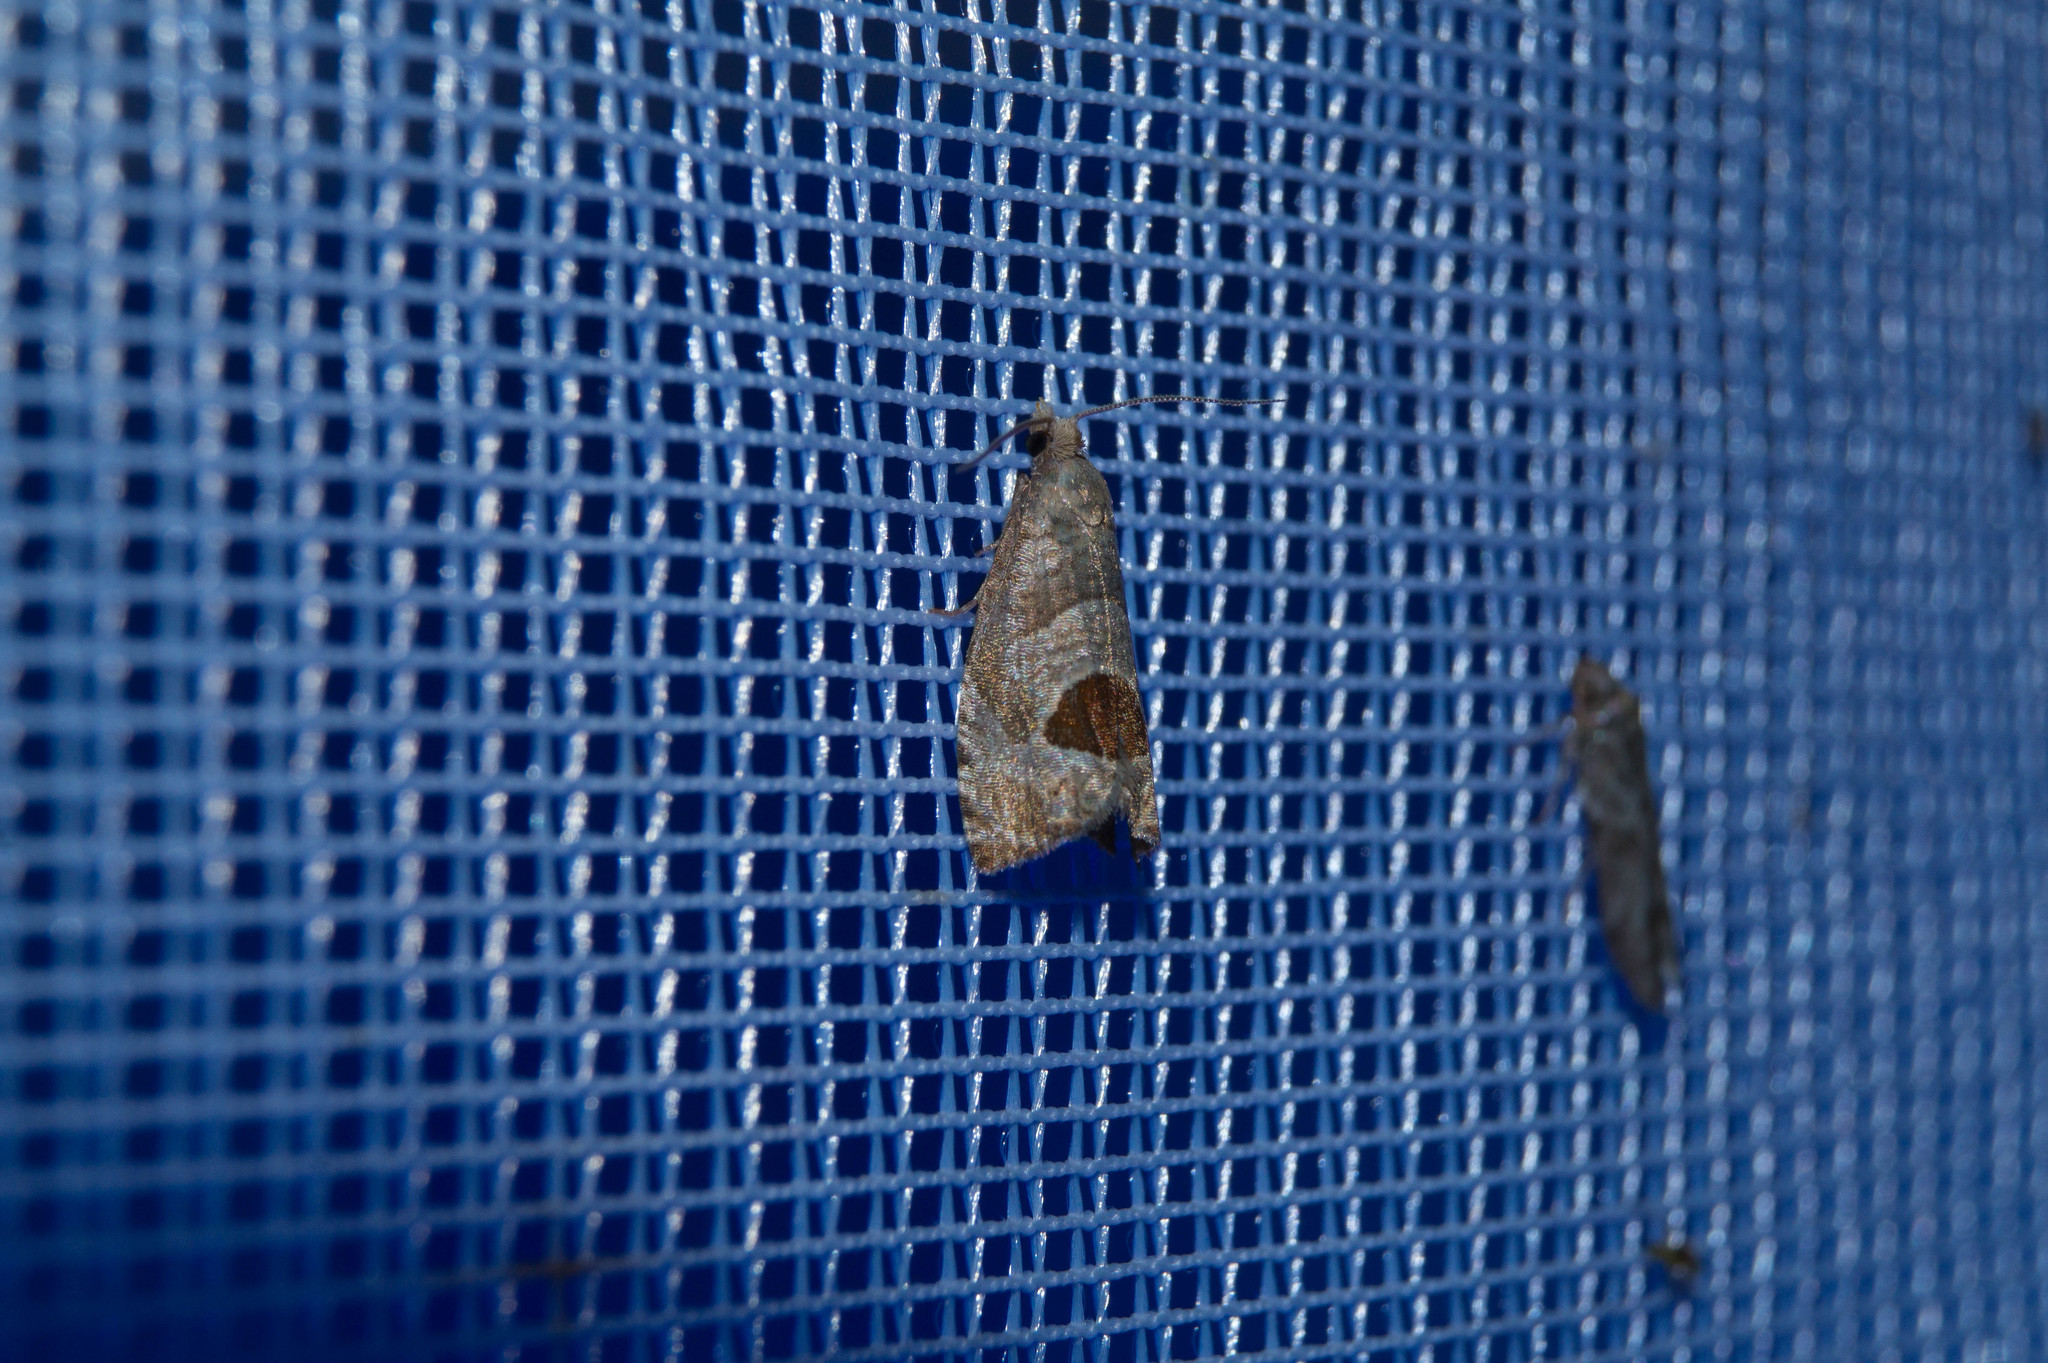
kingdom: Animalia
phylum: Arthropoda
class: Insecta
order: Lepidoptera
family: Tortricidae
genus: Notocelia
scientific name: Notocelia uddmanniana
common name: Bramble shoot moth
